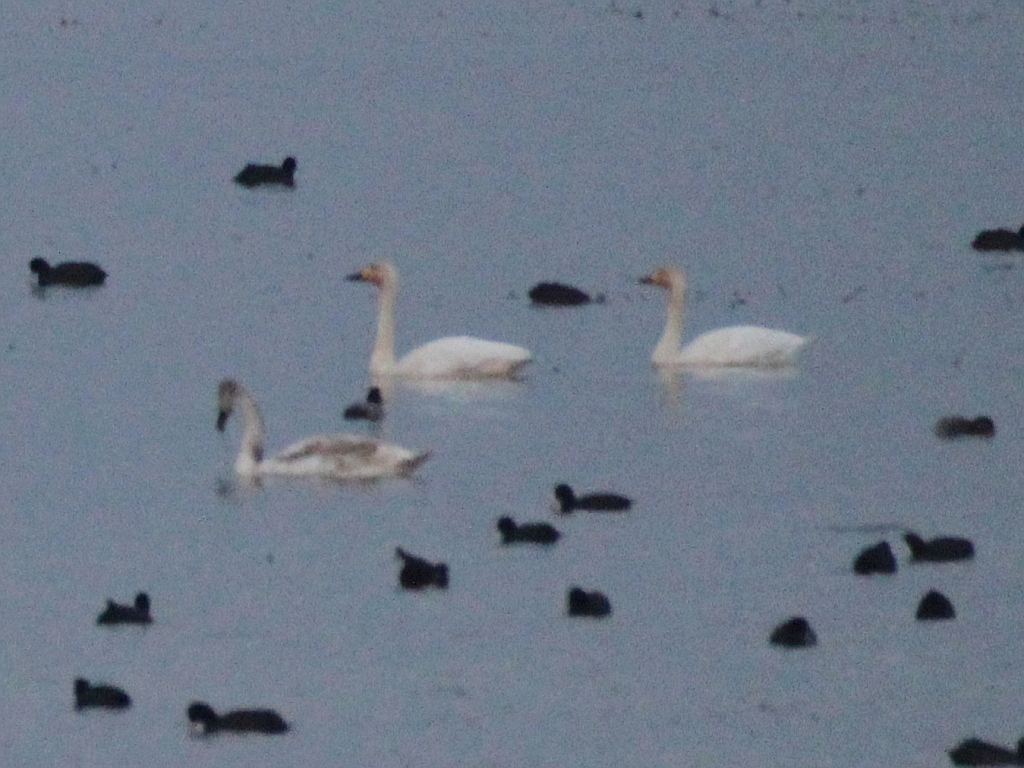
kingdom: Animalia
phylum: Chordata
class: Aves
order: Anseriformes
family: Anatidae
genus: Cygnus
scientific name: Cygnus columbianus
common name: Tundra swan
